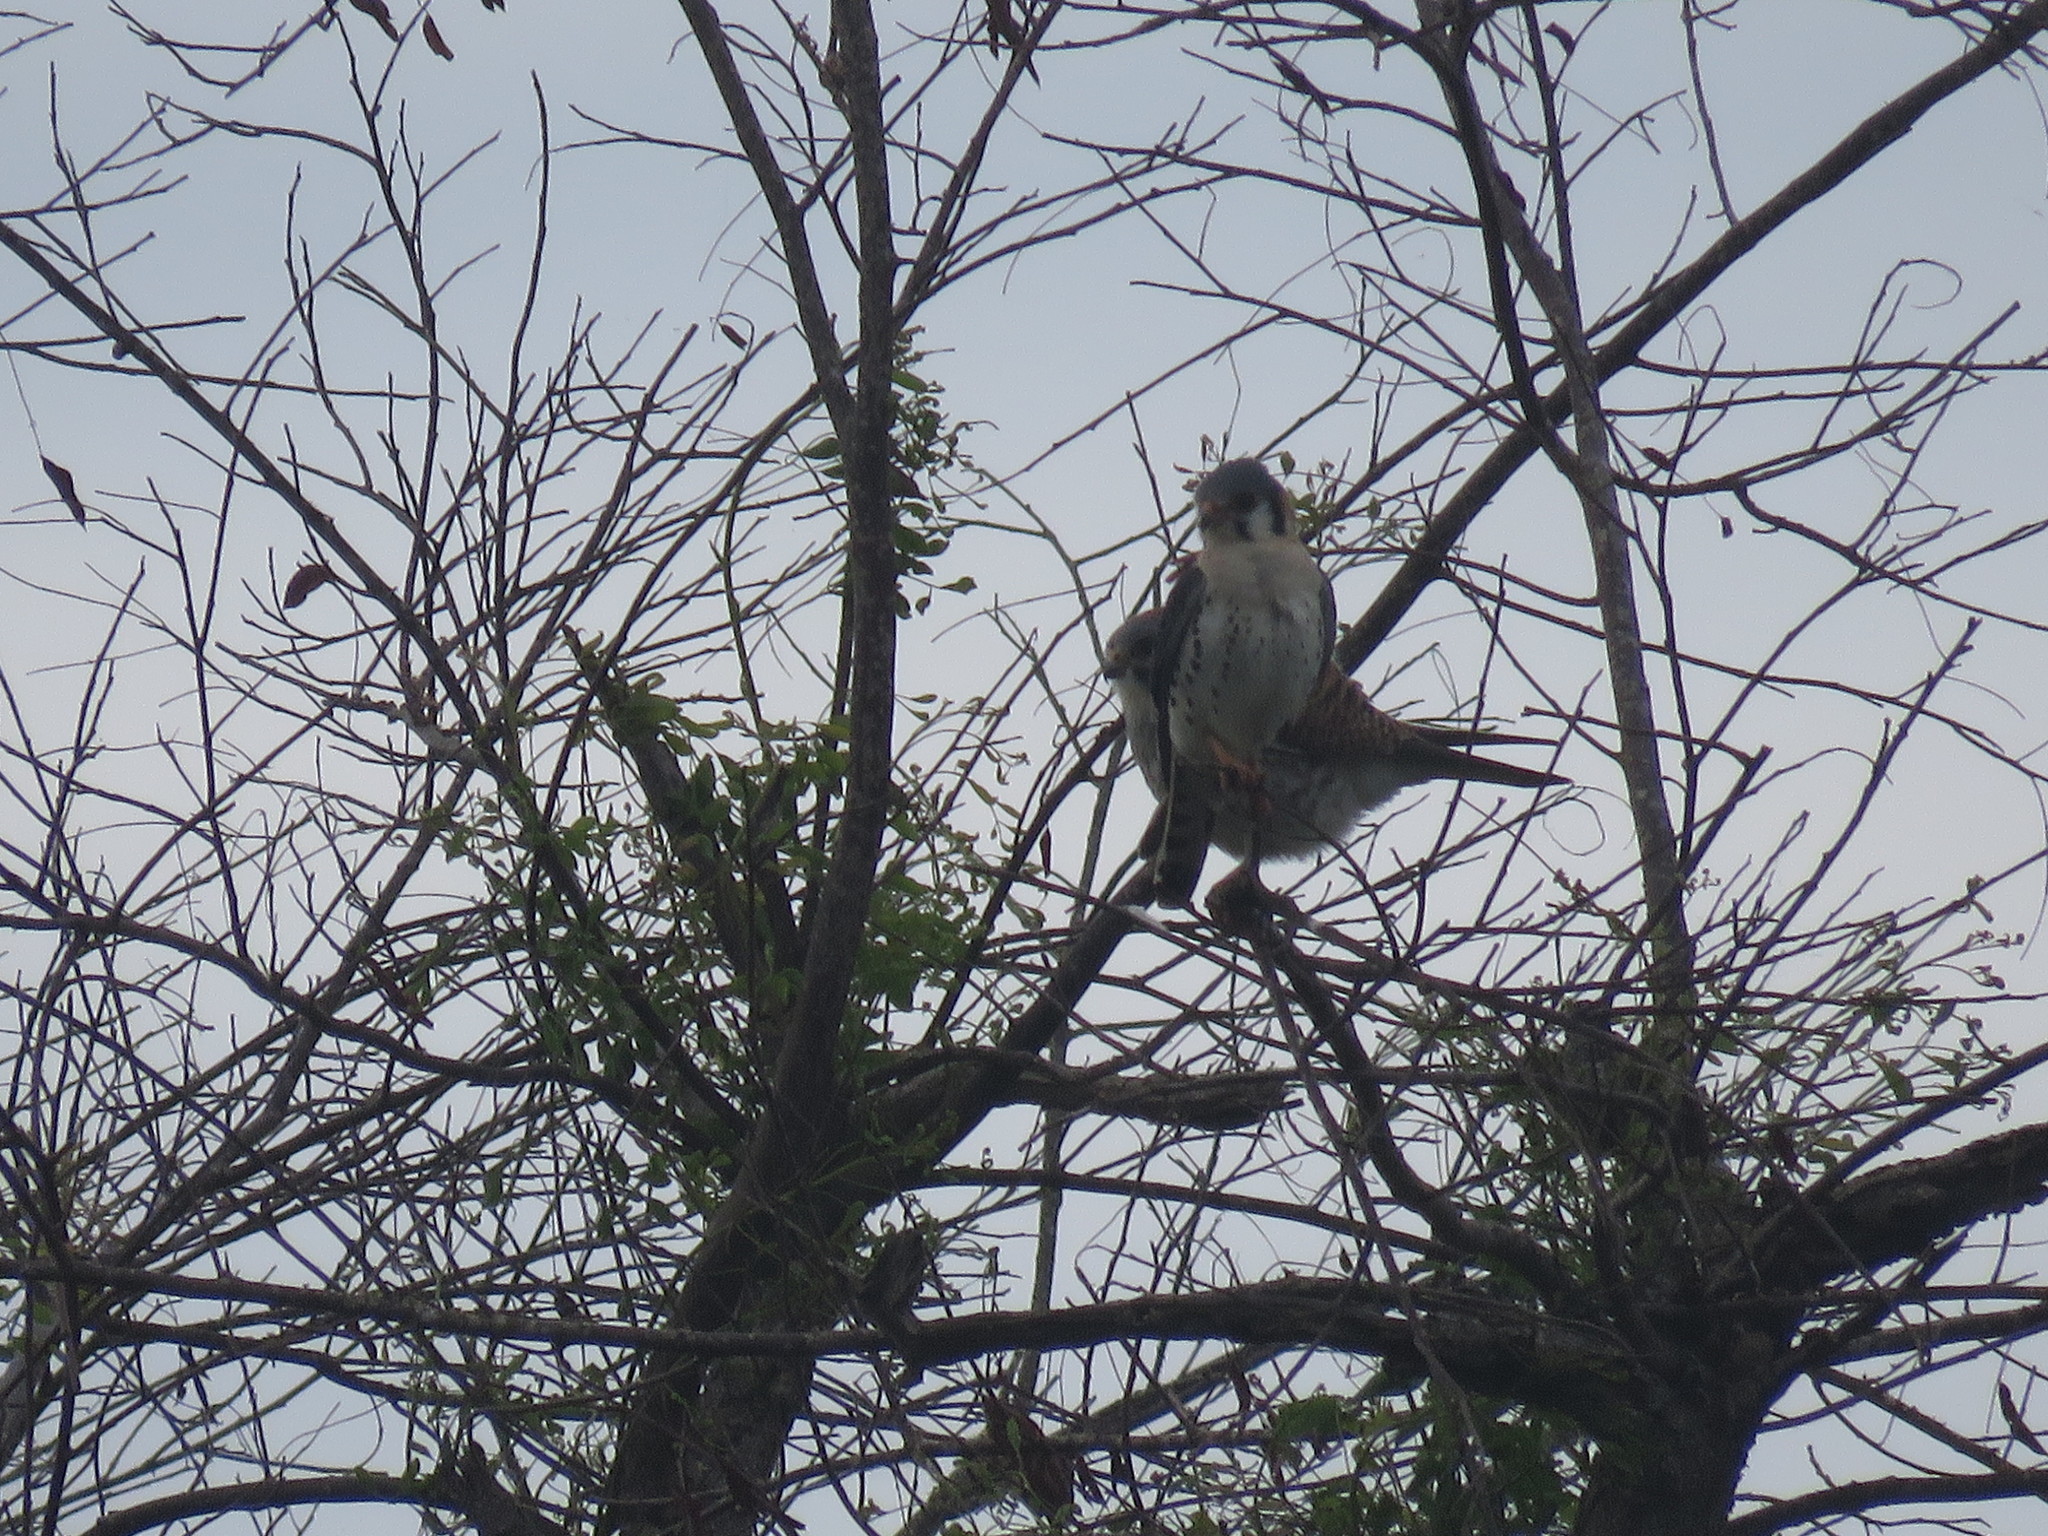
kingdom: Animalia
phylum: Chordata
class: Aves
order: Falconiformes
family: Falconidae
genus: Falco
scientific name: Falco sparverius
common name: American kestrel
